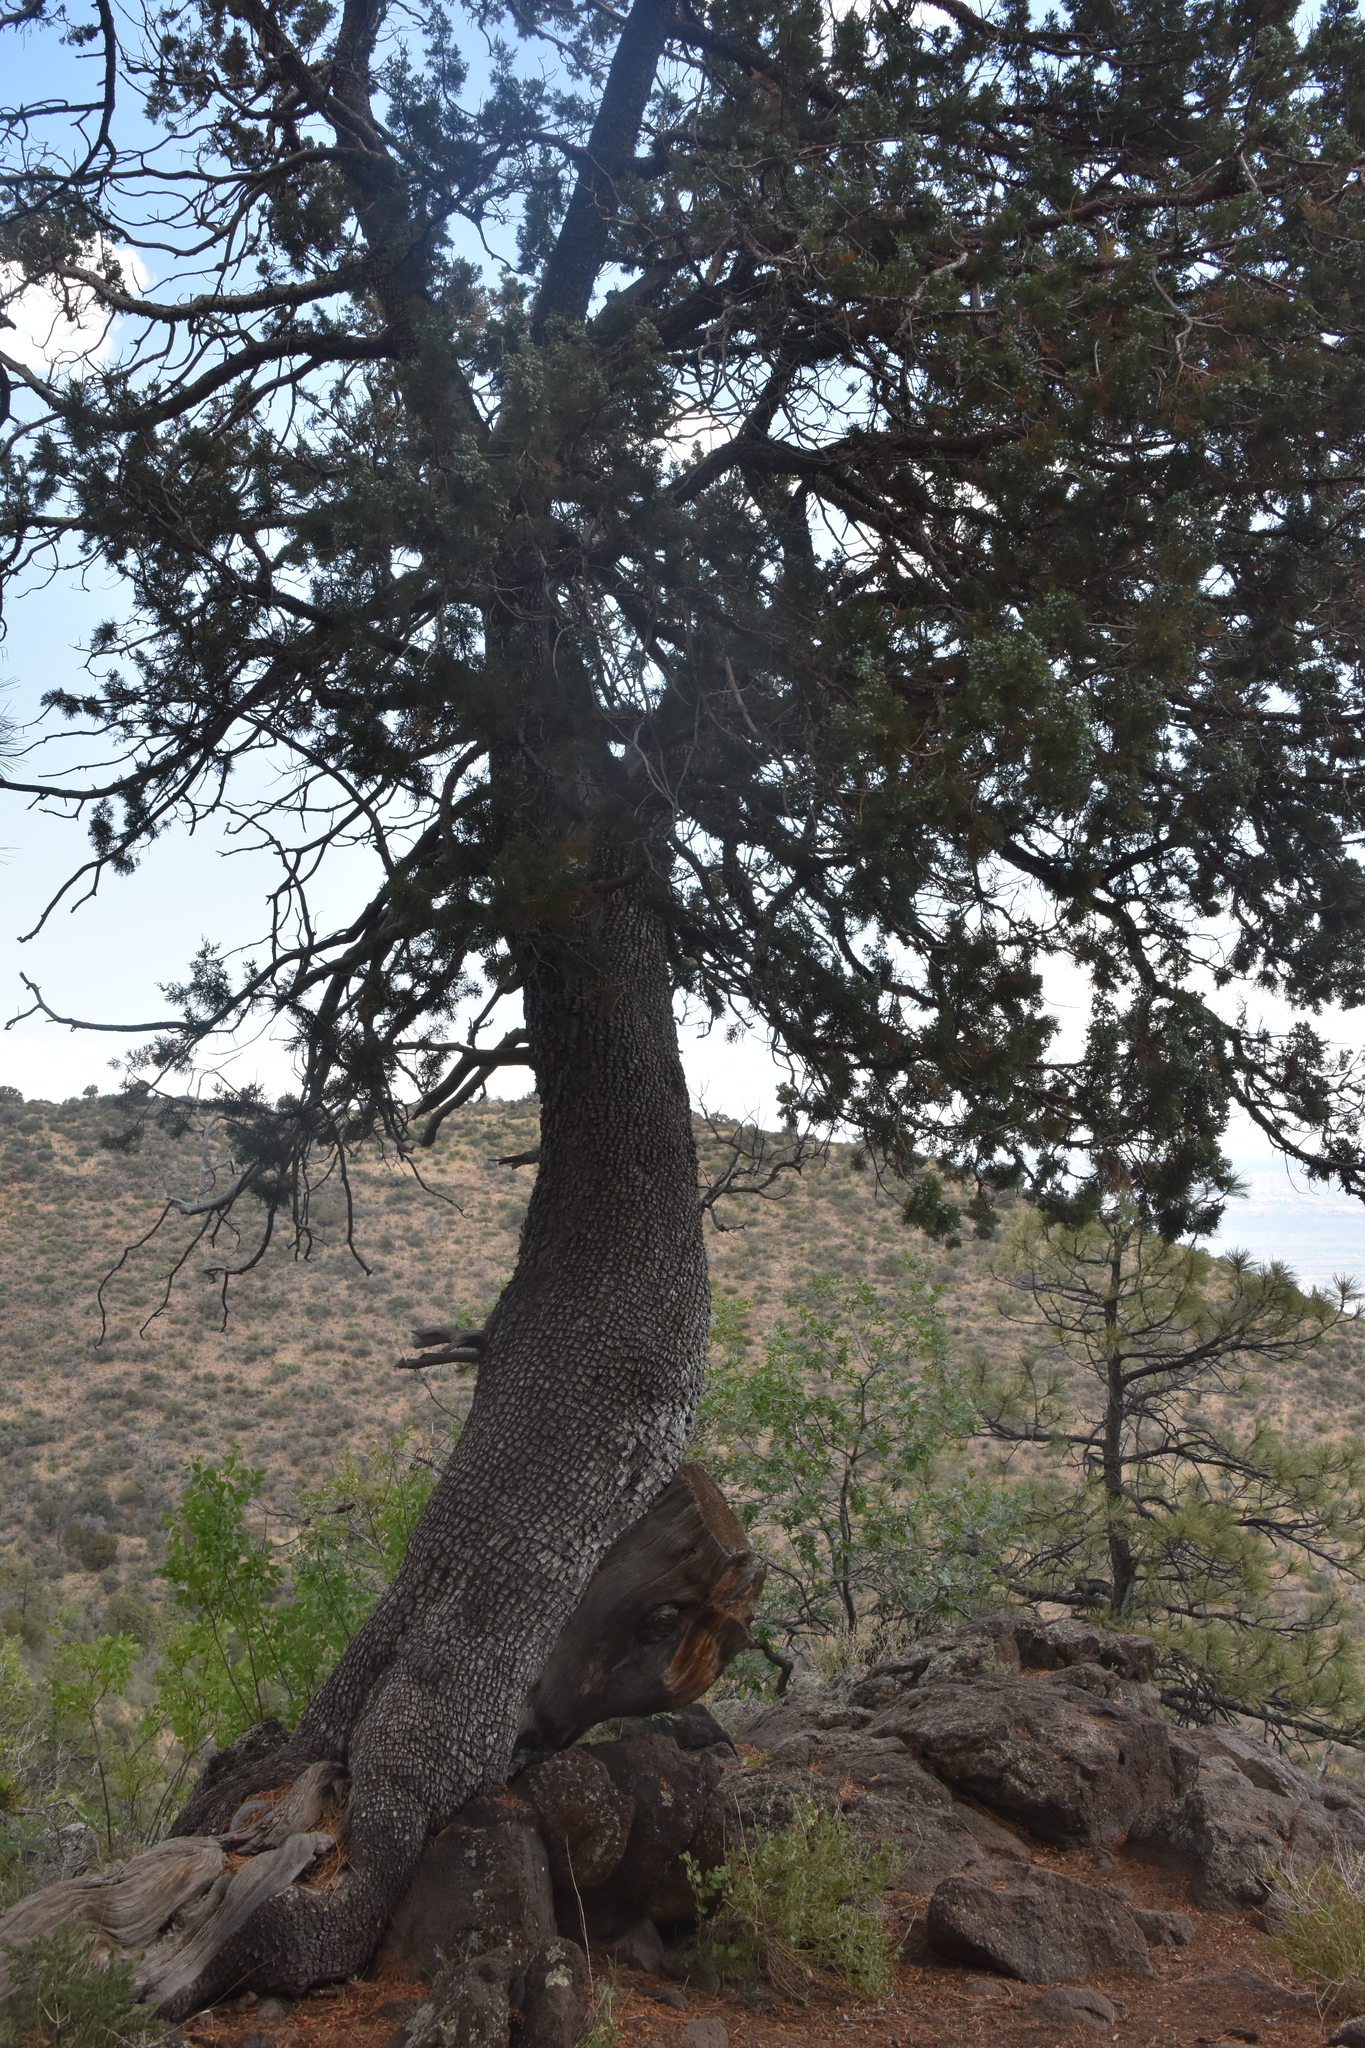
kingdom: Plantae
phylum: Tracheophyta
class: Pinopsida
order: Pinales
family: Cupressaceae
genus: Juniperus
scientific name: Juniperus deppeana
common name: Alligator juniper
